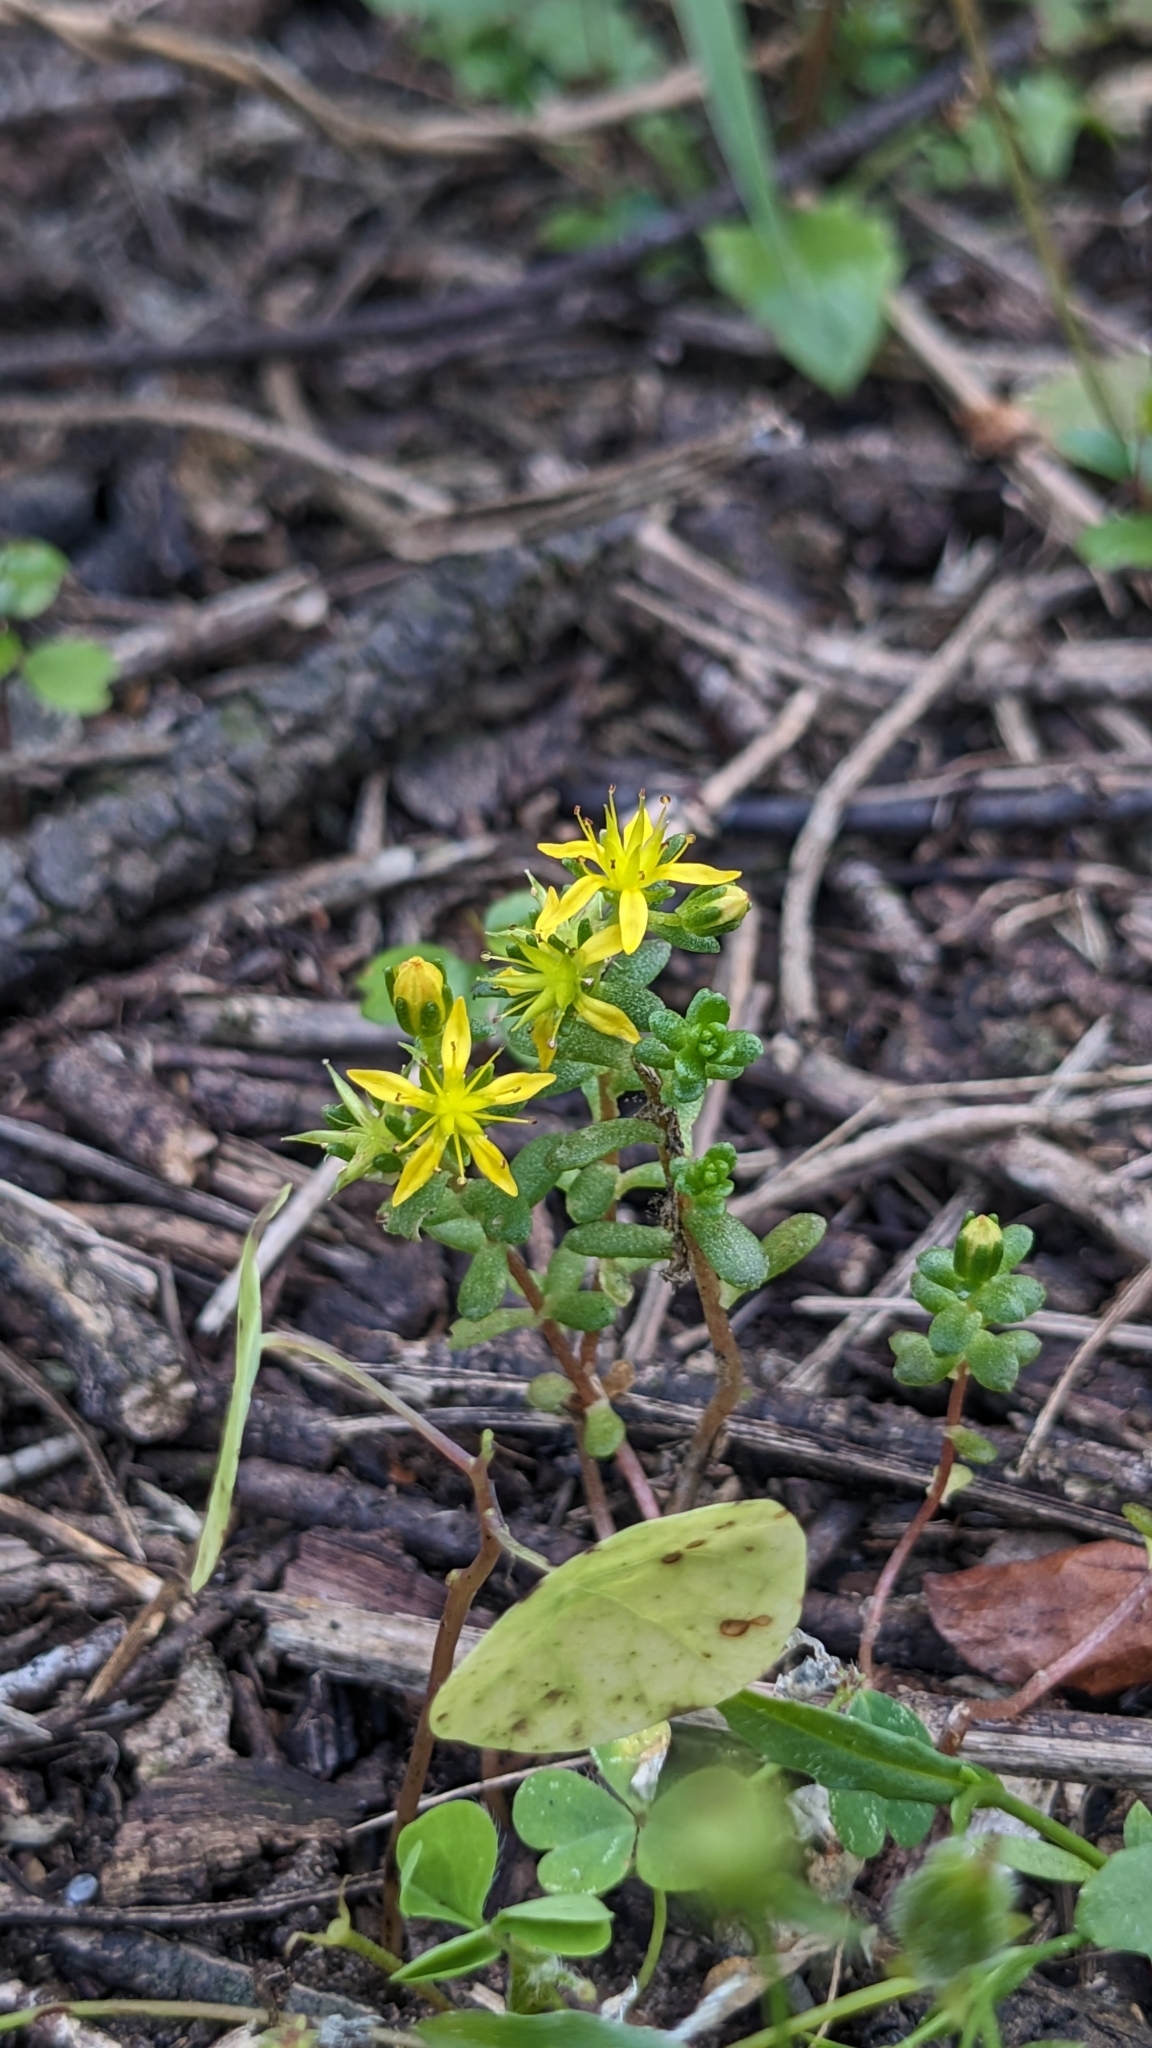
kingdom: Plantae
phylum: Tracheophyta
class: Magnoliopsida
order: Saxifragales
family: Crassulaceae
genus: Sedum
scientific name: Sedum japonicum
